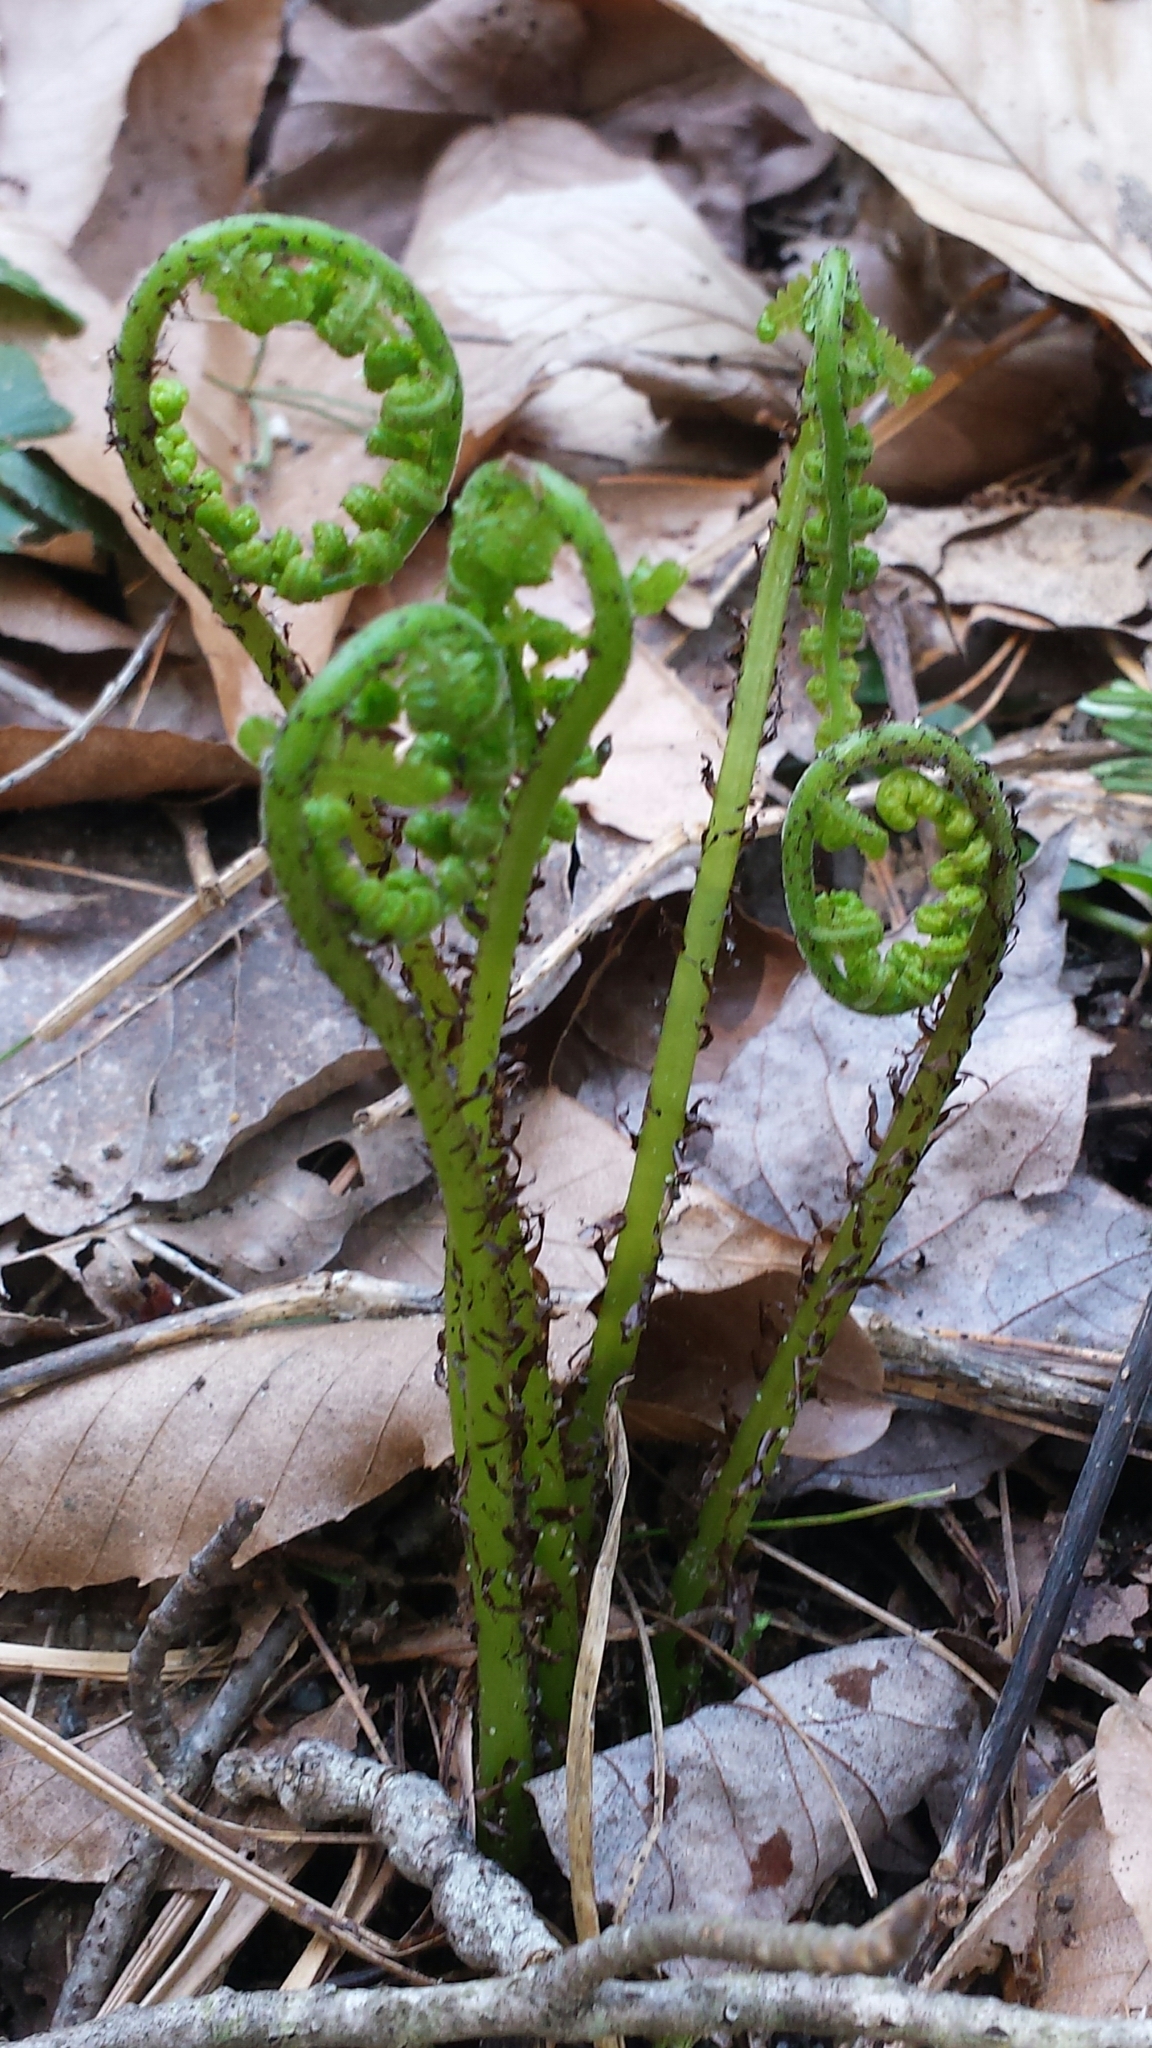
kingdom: Plantae
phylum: Tracheophyta
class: Polypodiopsida
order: Polypodiales
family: Athyriaceae
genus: Athyrium
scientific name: Athyrium angustum
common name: Northern lady fern
